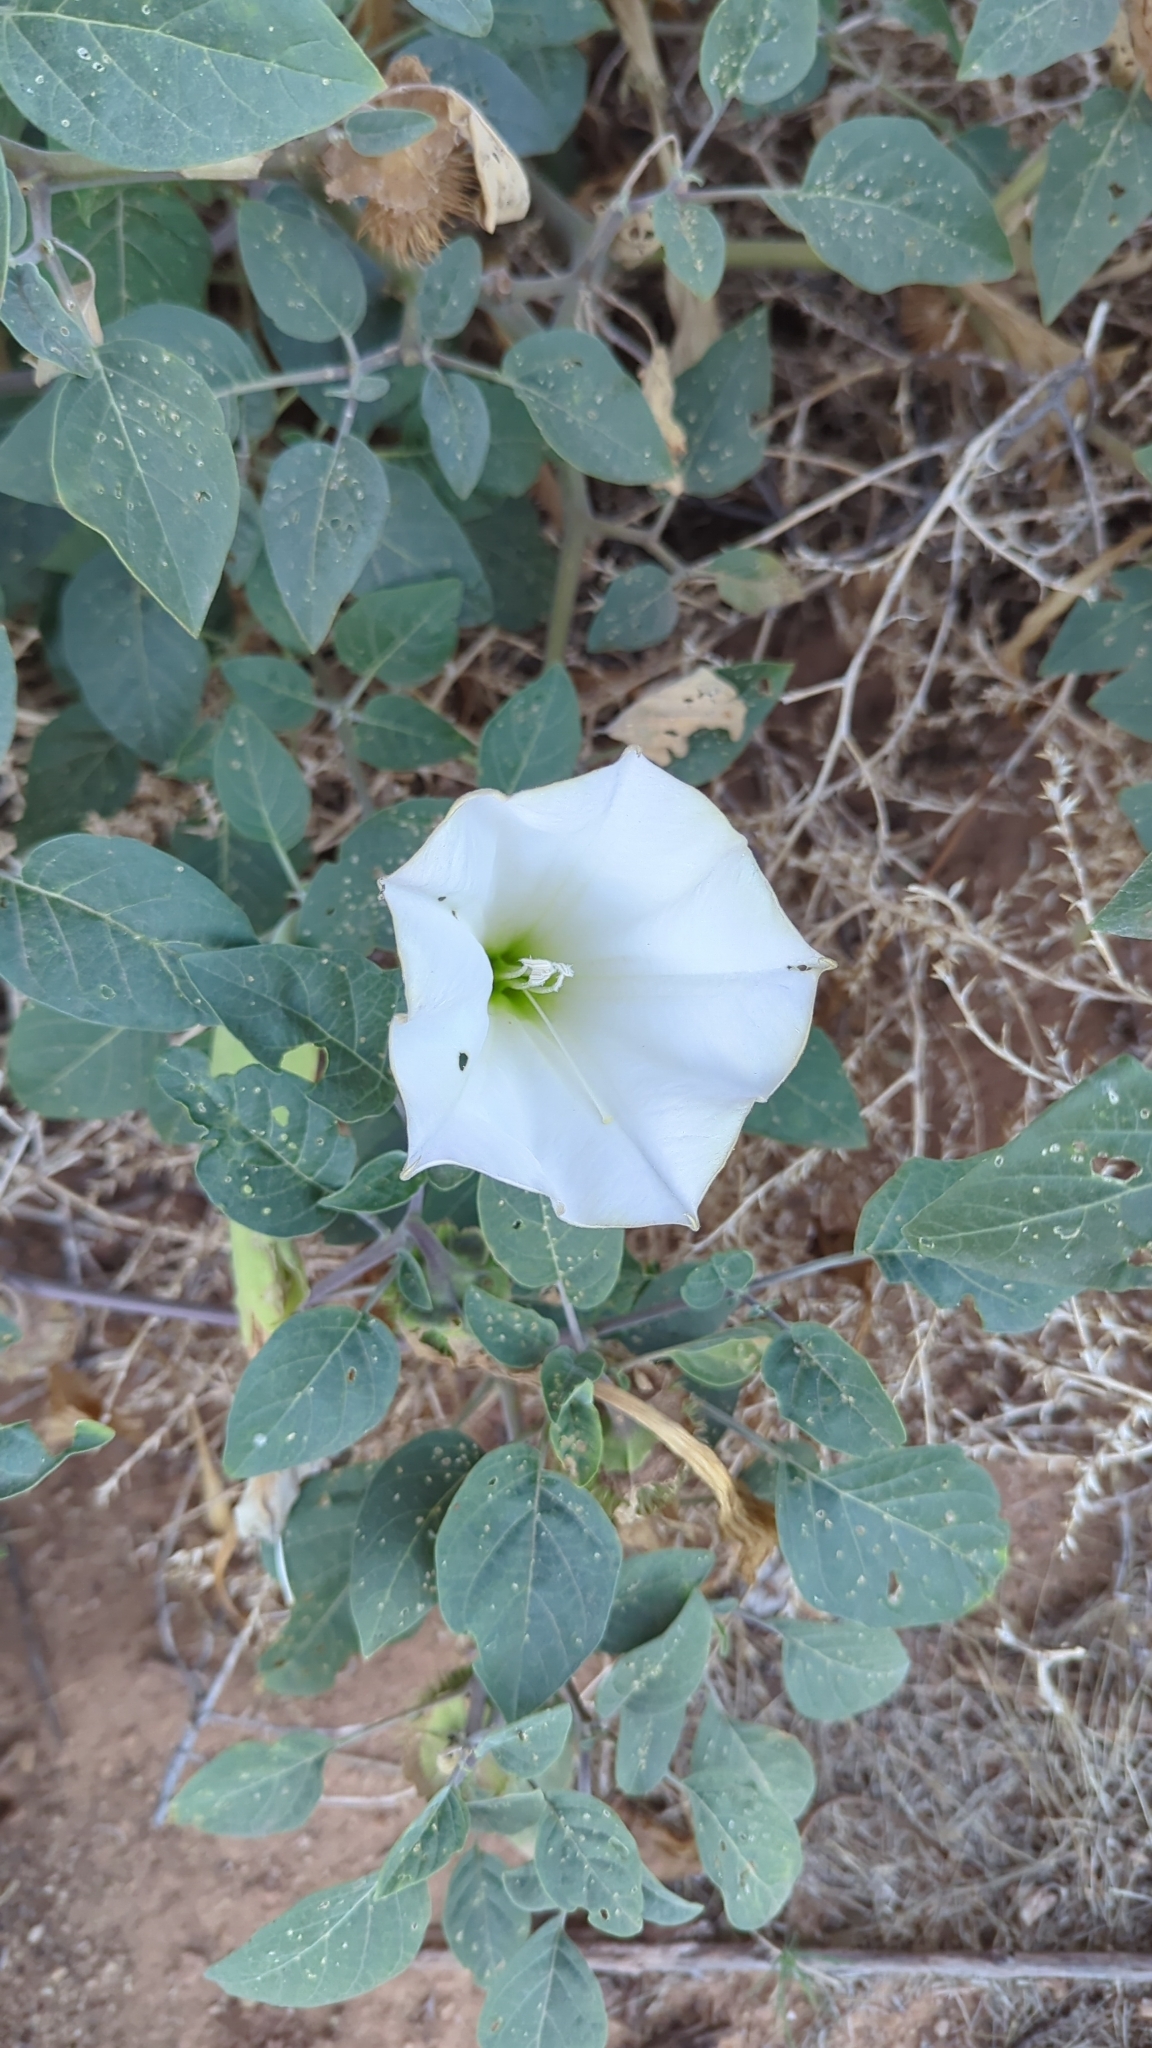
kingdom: Plantae
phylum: Tracheophyta
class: Magnoliopsida
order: Solanales
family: Solanaceae
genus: Datura
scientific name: Datura wrightii
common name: Sacred thorn-apple
